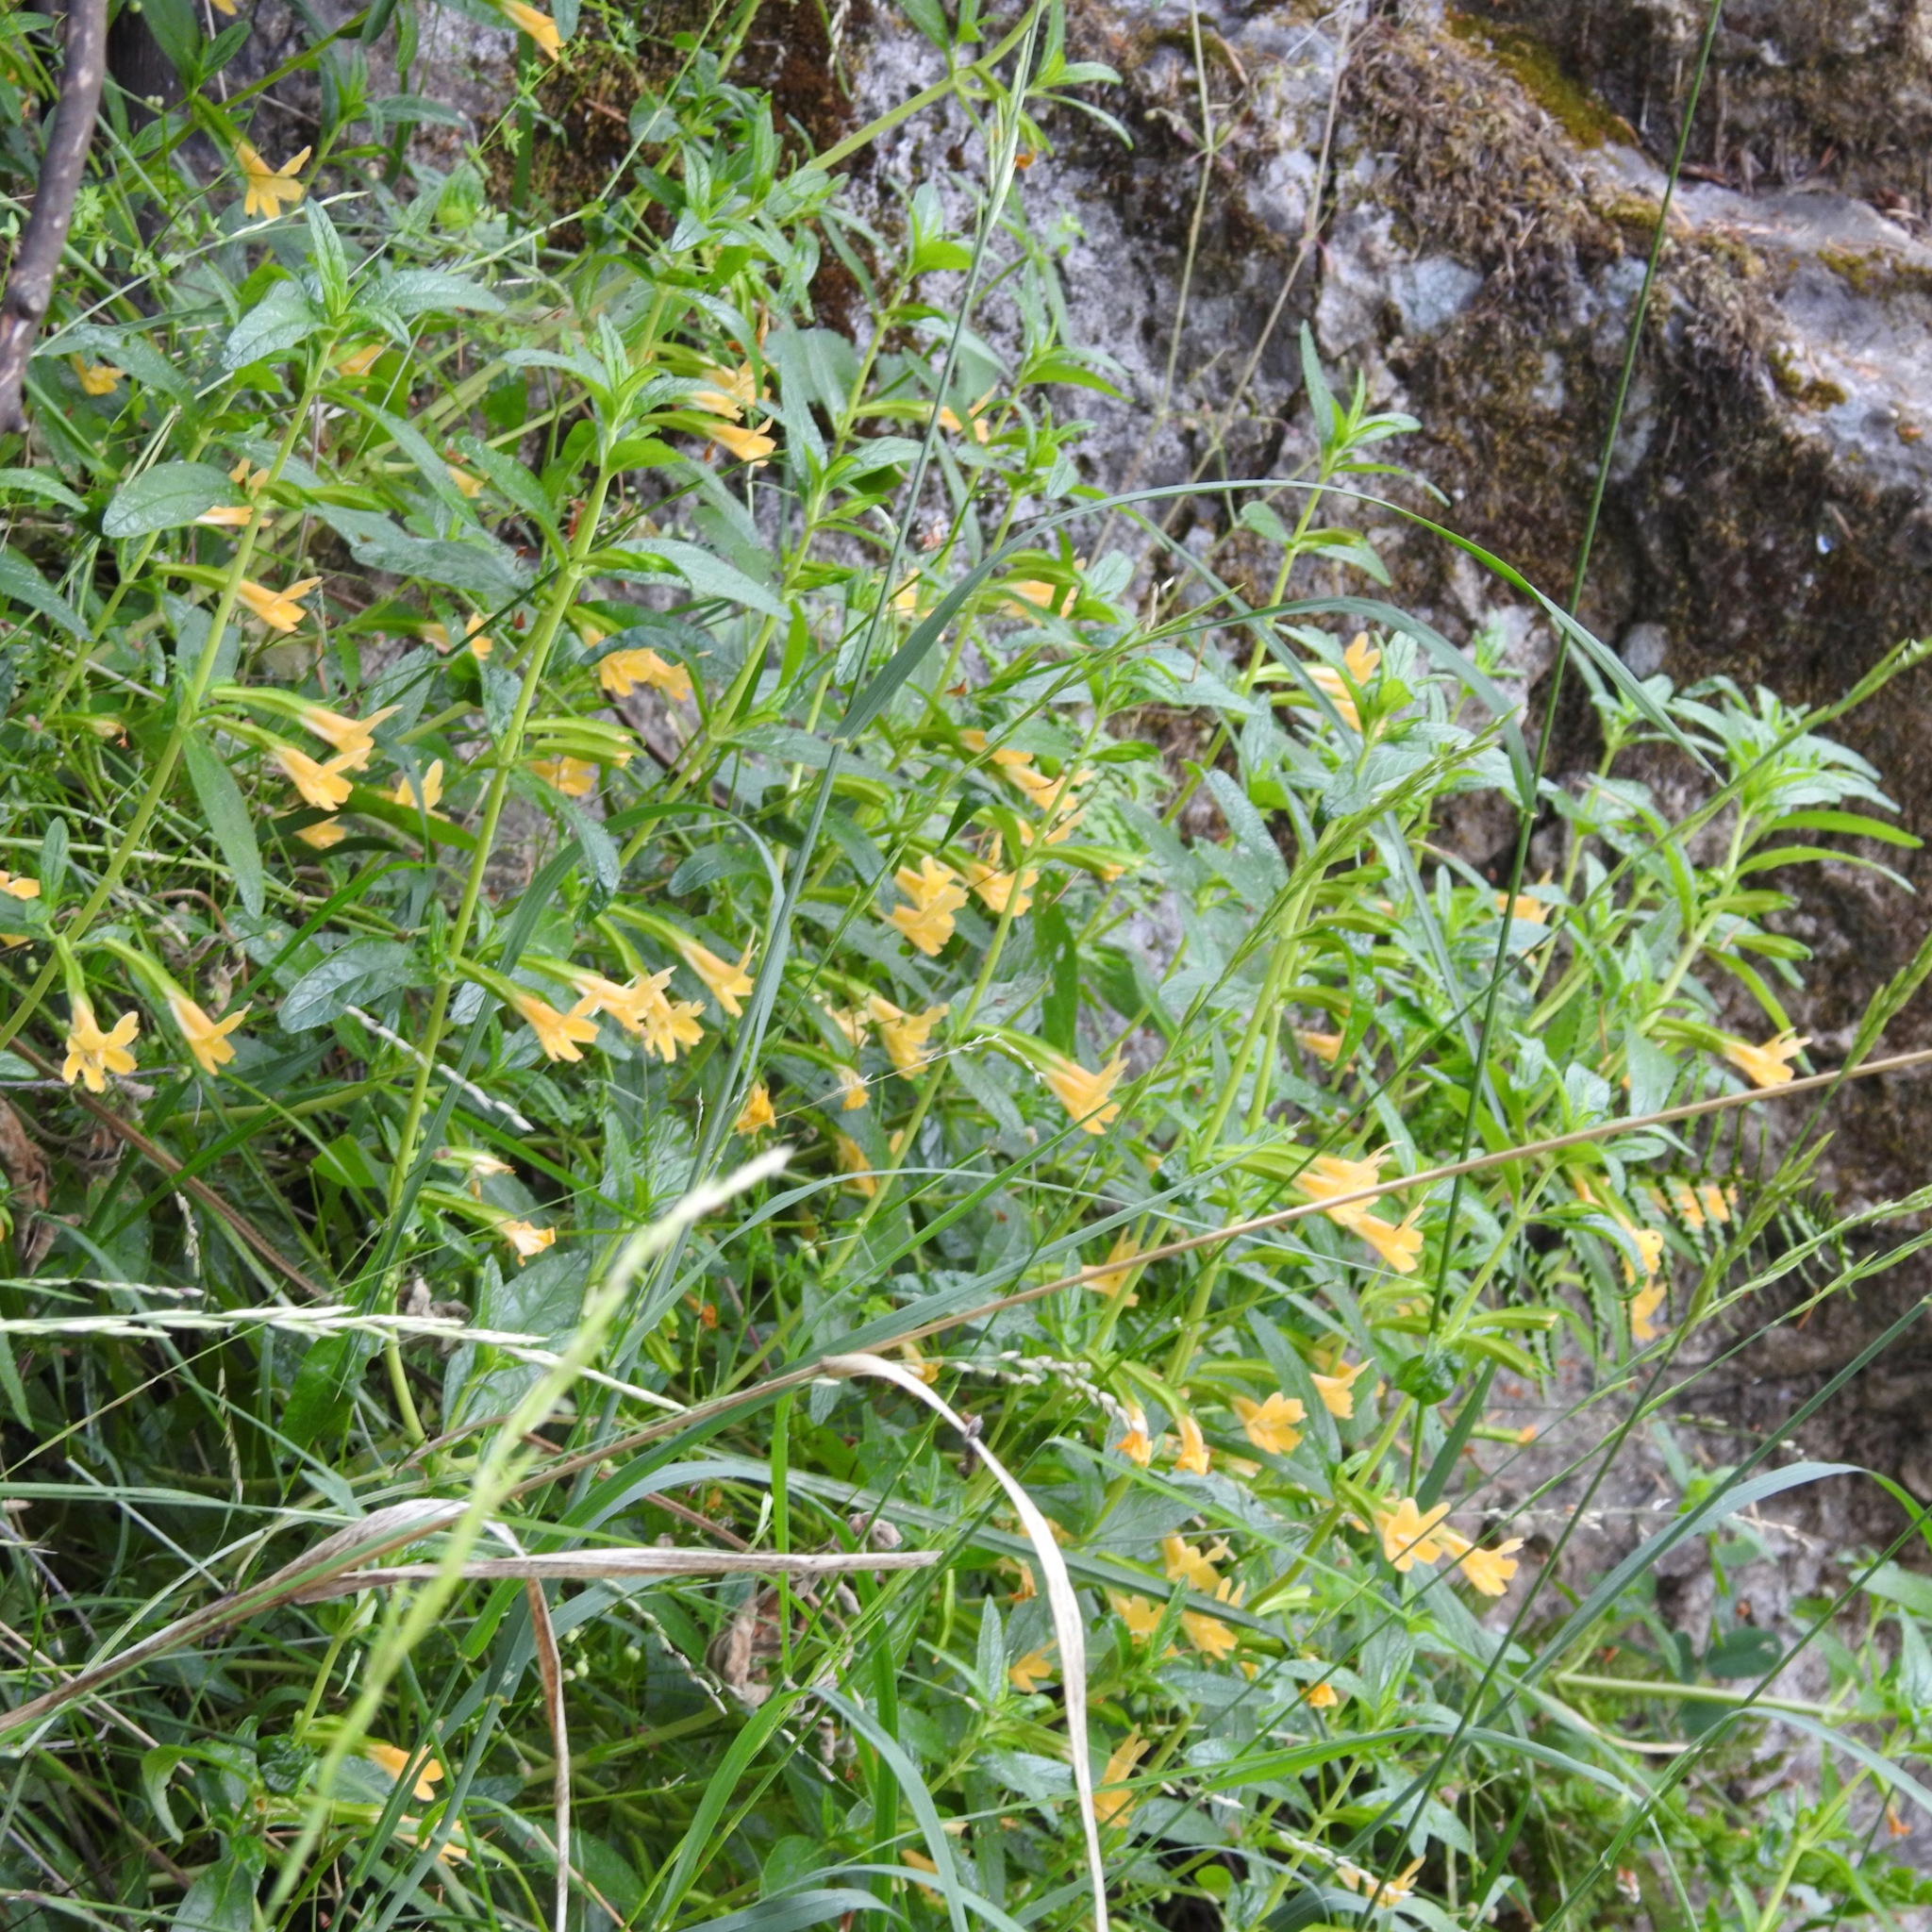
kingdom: Plantae
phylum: Tracheophyta
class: Magnoliopsida
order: Lamiales
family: Phrymaceae
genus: Diplacus
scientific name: Diplacus aurantiacus
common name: Bush monkey-flower
